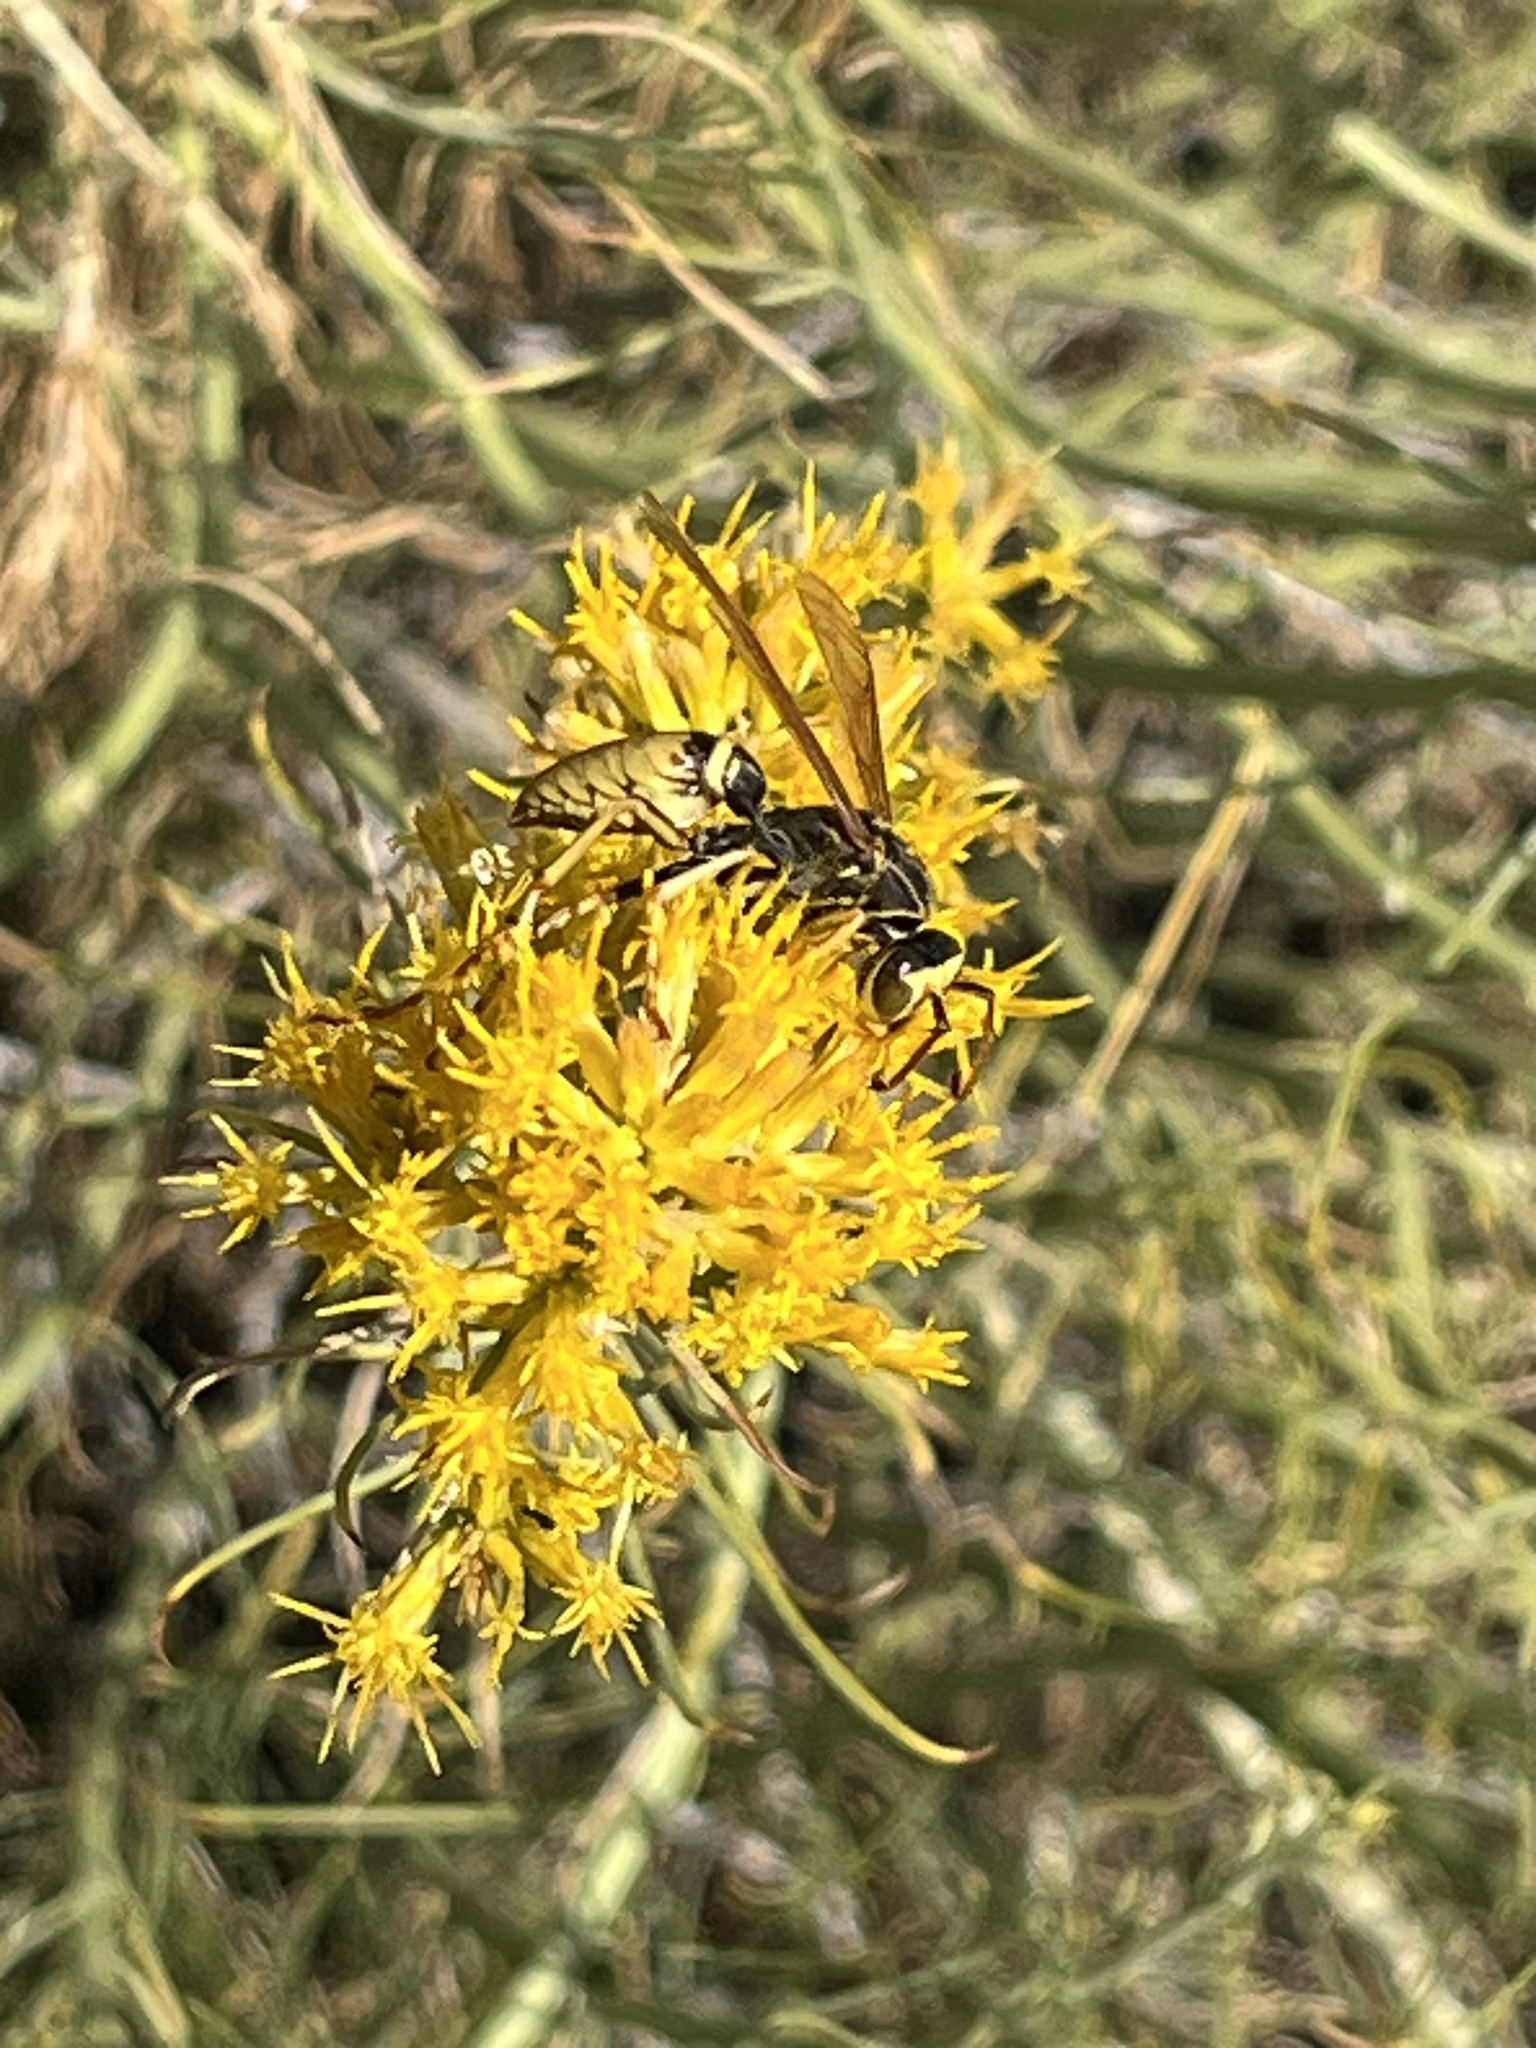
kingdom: Animalia
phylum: Arthropoda
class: Insecta
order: Hymenoptera
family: Eumenidae
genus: Polistes
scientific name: Polistes aurifer
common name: Paper wasp
